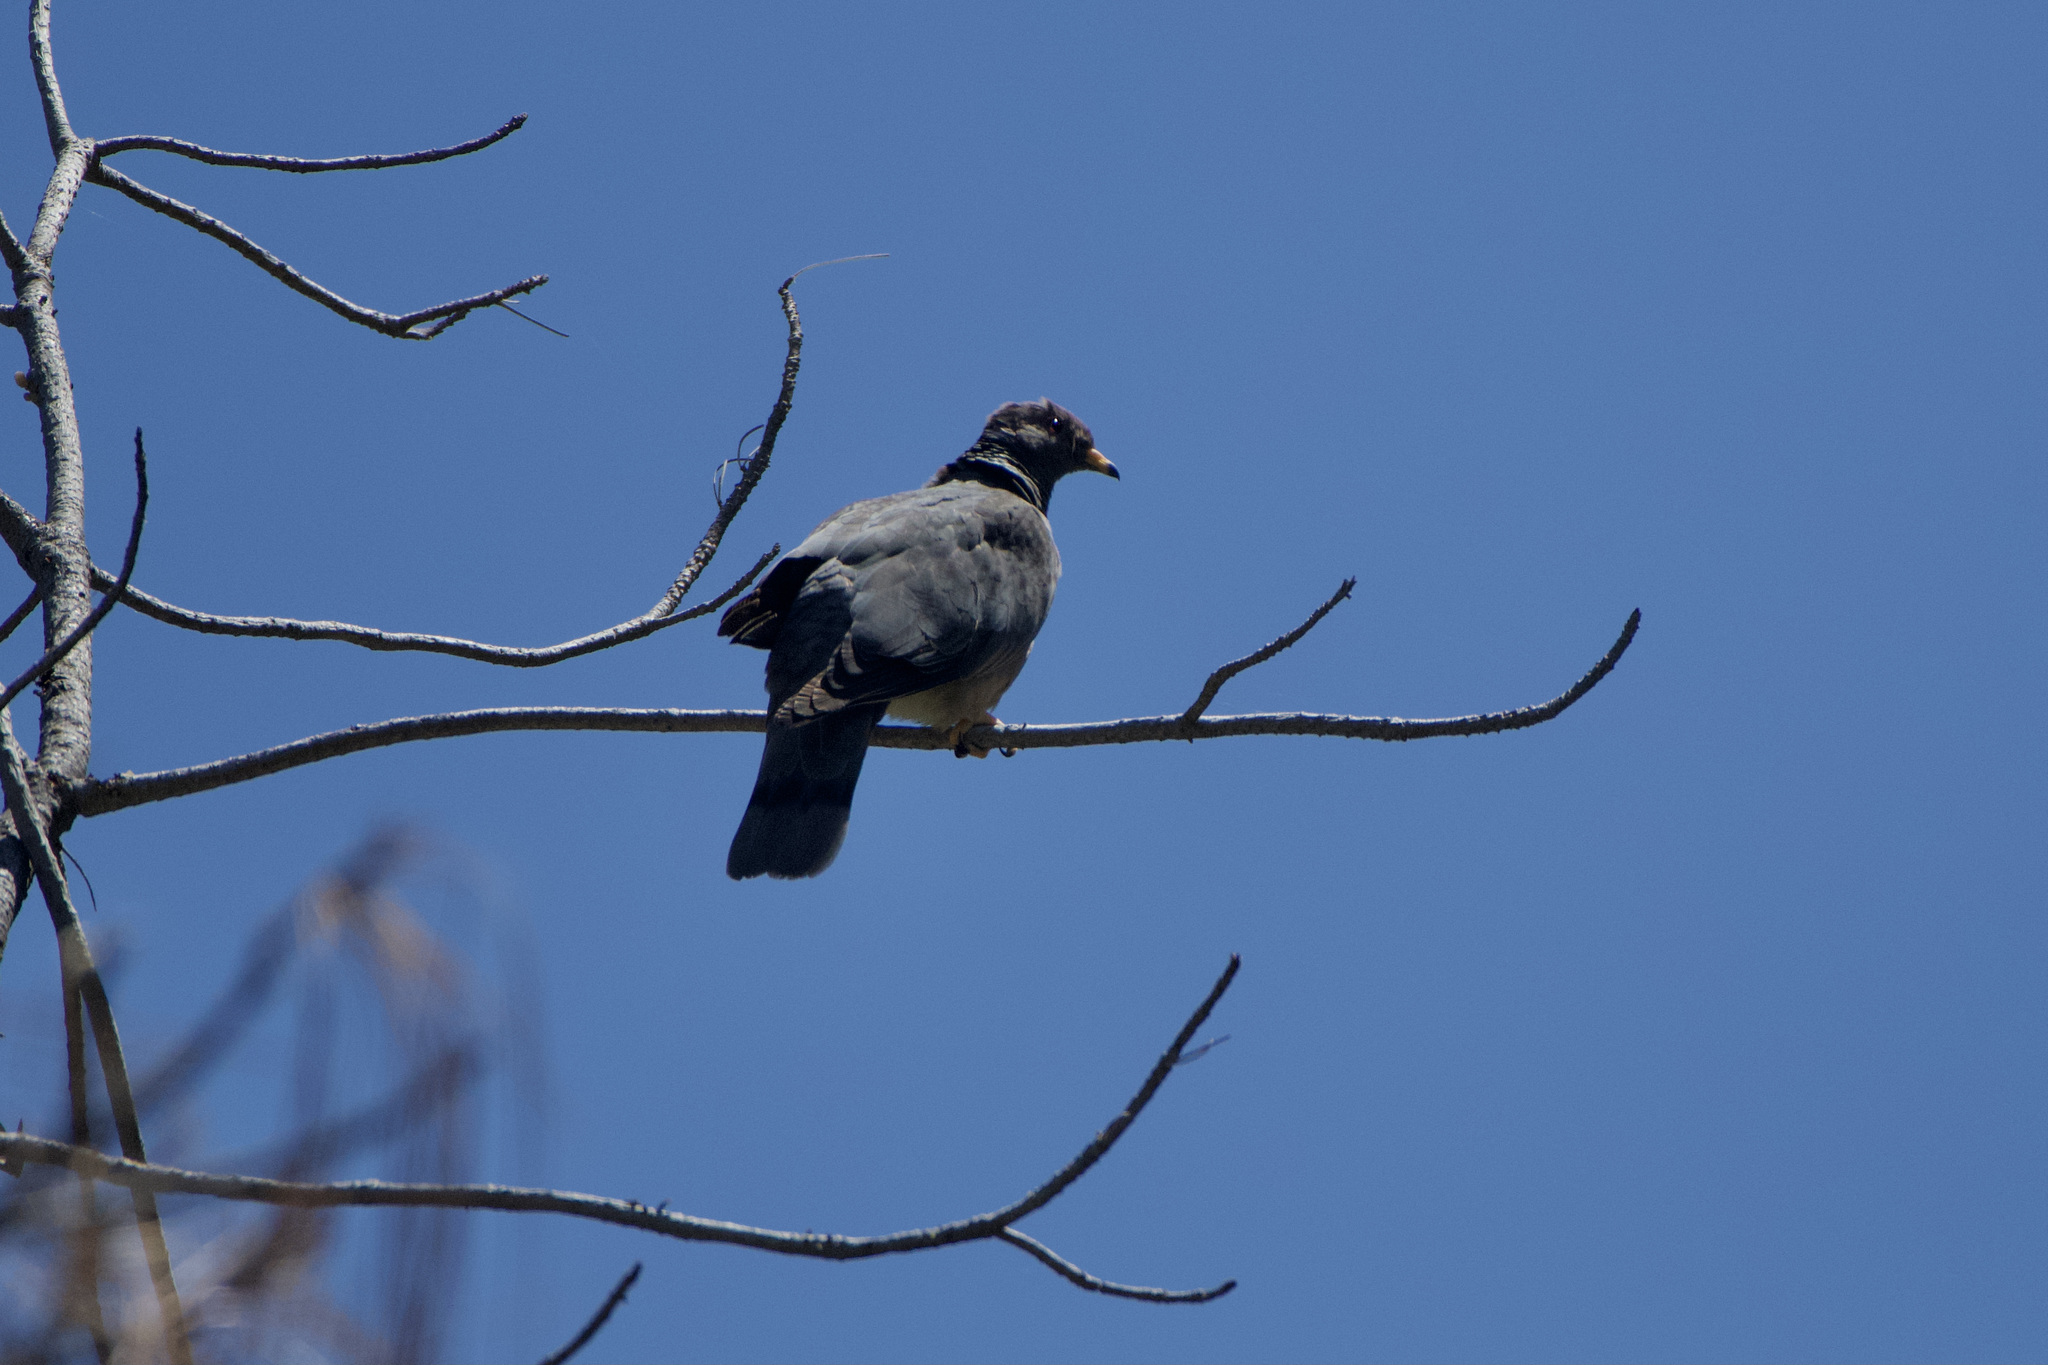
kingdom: Animalia
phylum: Chordata
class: Aves
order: Columbiformes
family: Columbidae
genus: Patagioenas
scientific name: Patagioenas fasciata
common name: Band-tailed pigeon
